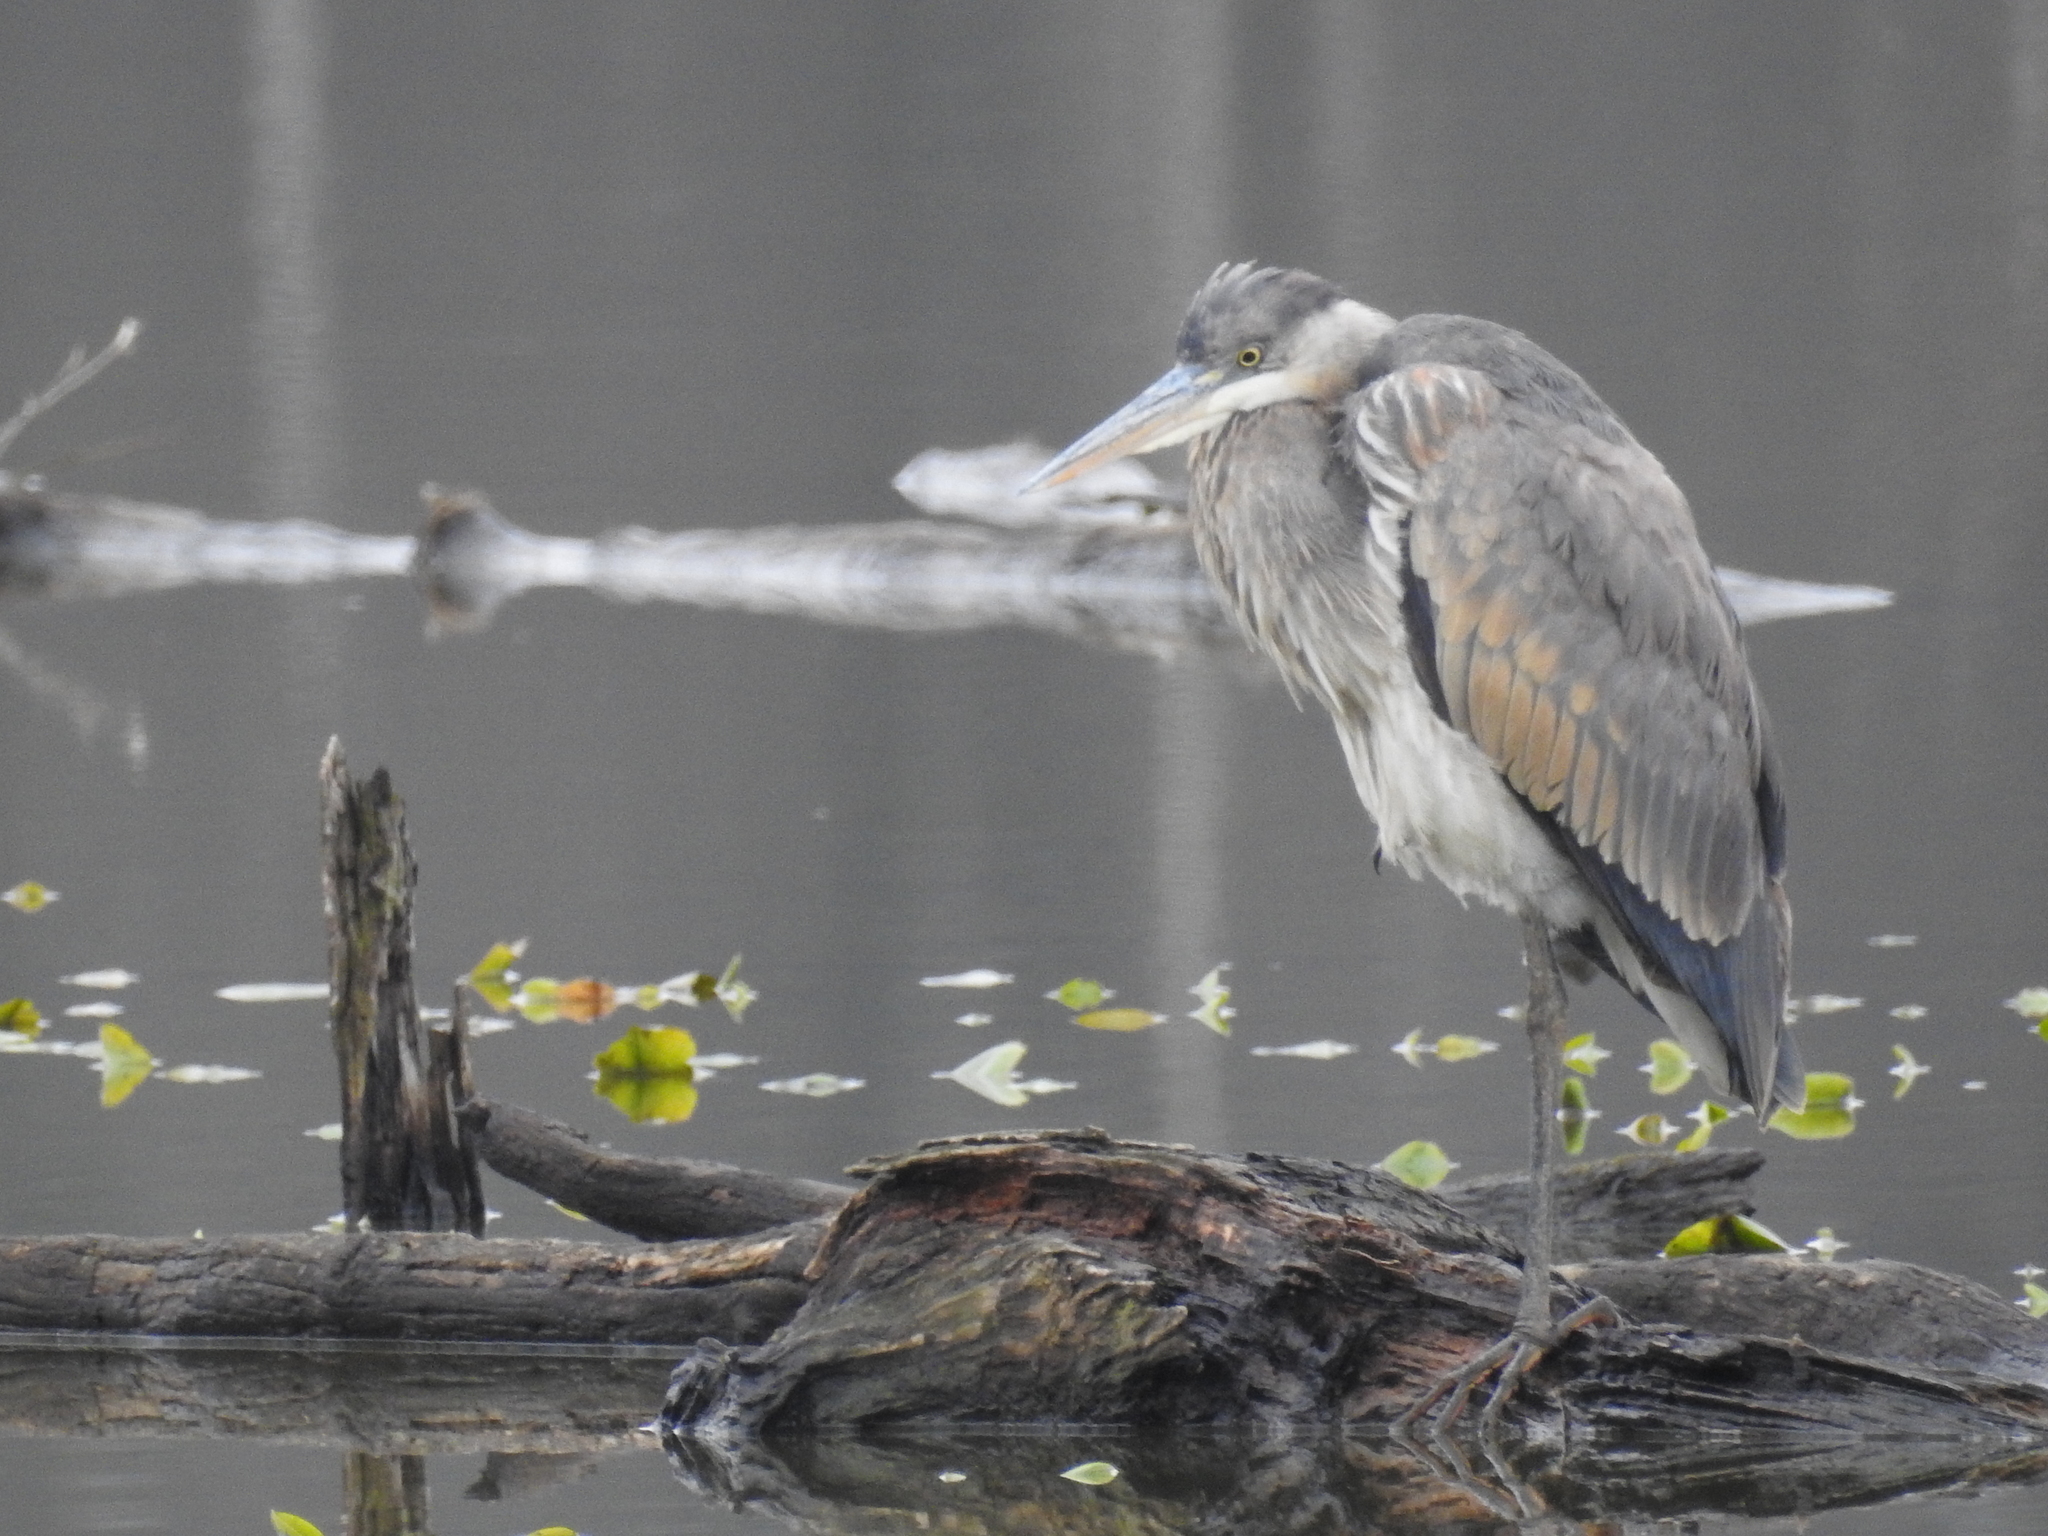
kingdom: Animalia
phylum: Chordata
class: Aves
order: Pelecaniformes
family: Ardeidae
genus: Ardea
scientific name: Ardea herodias
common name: Great blue heron
